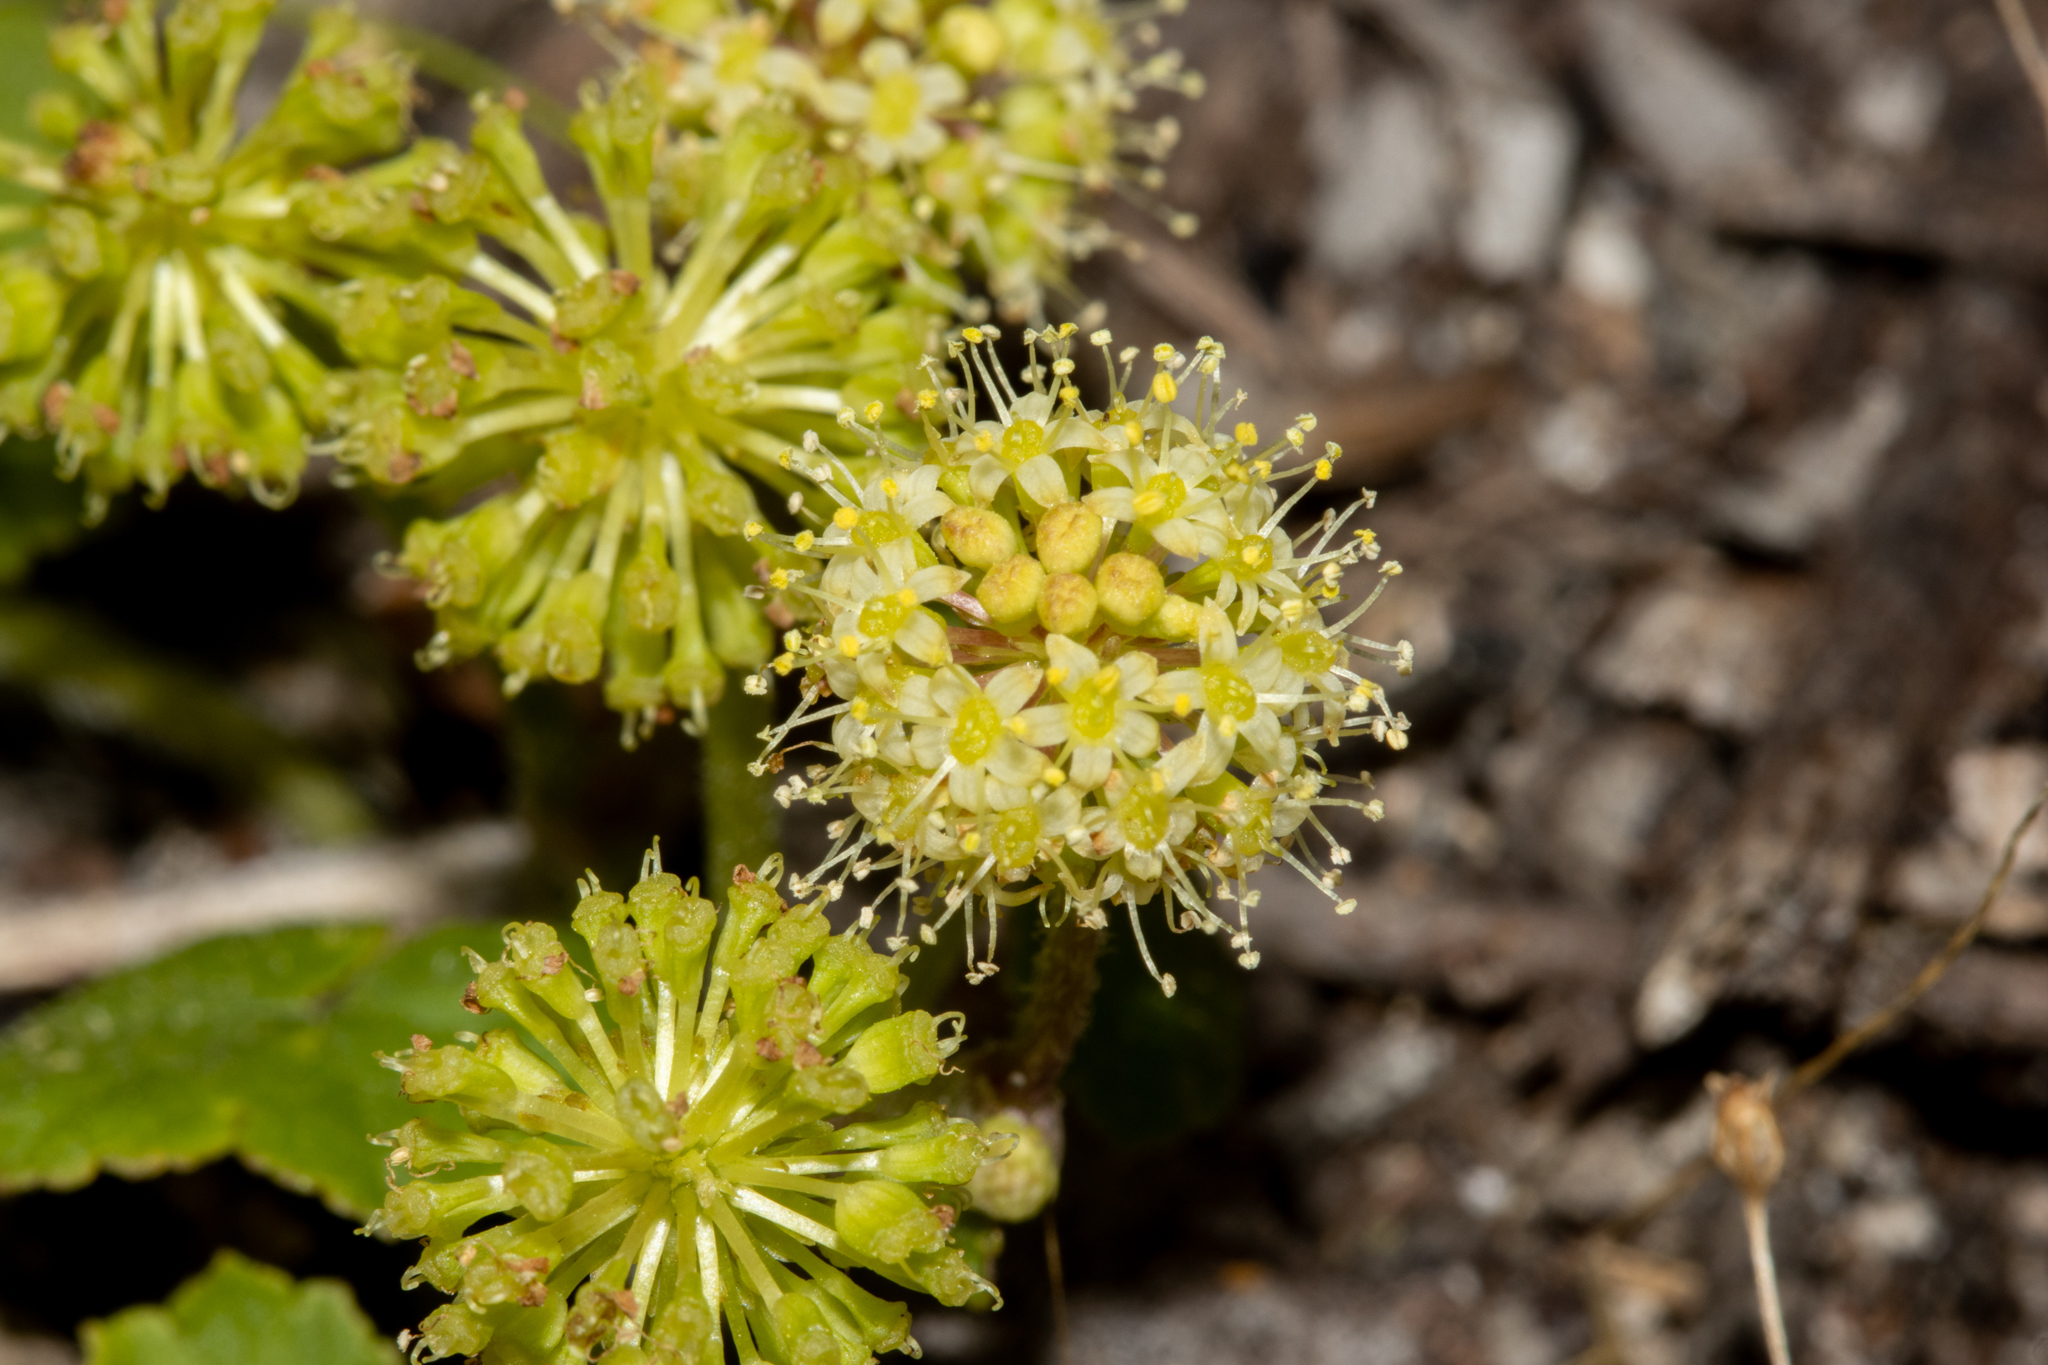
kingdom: Plantae
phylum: Tracheophyta
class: Magnoliopsida
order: Apiales
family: Araliaceae
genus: Hydrocotyle
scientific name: Hydrocotyle laxiflora
